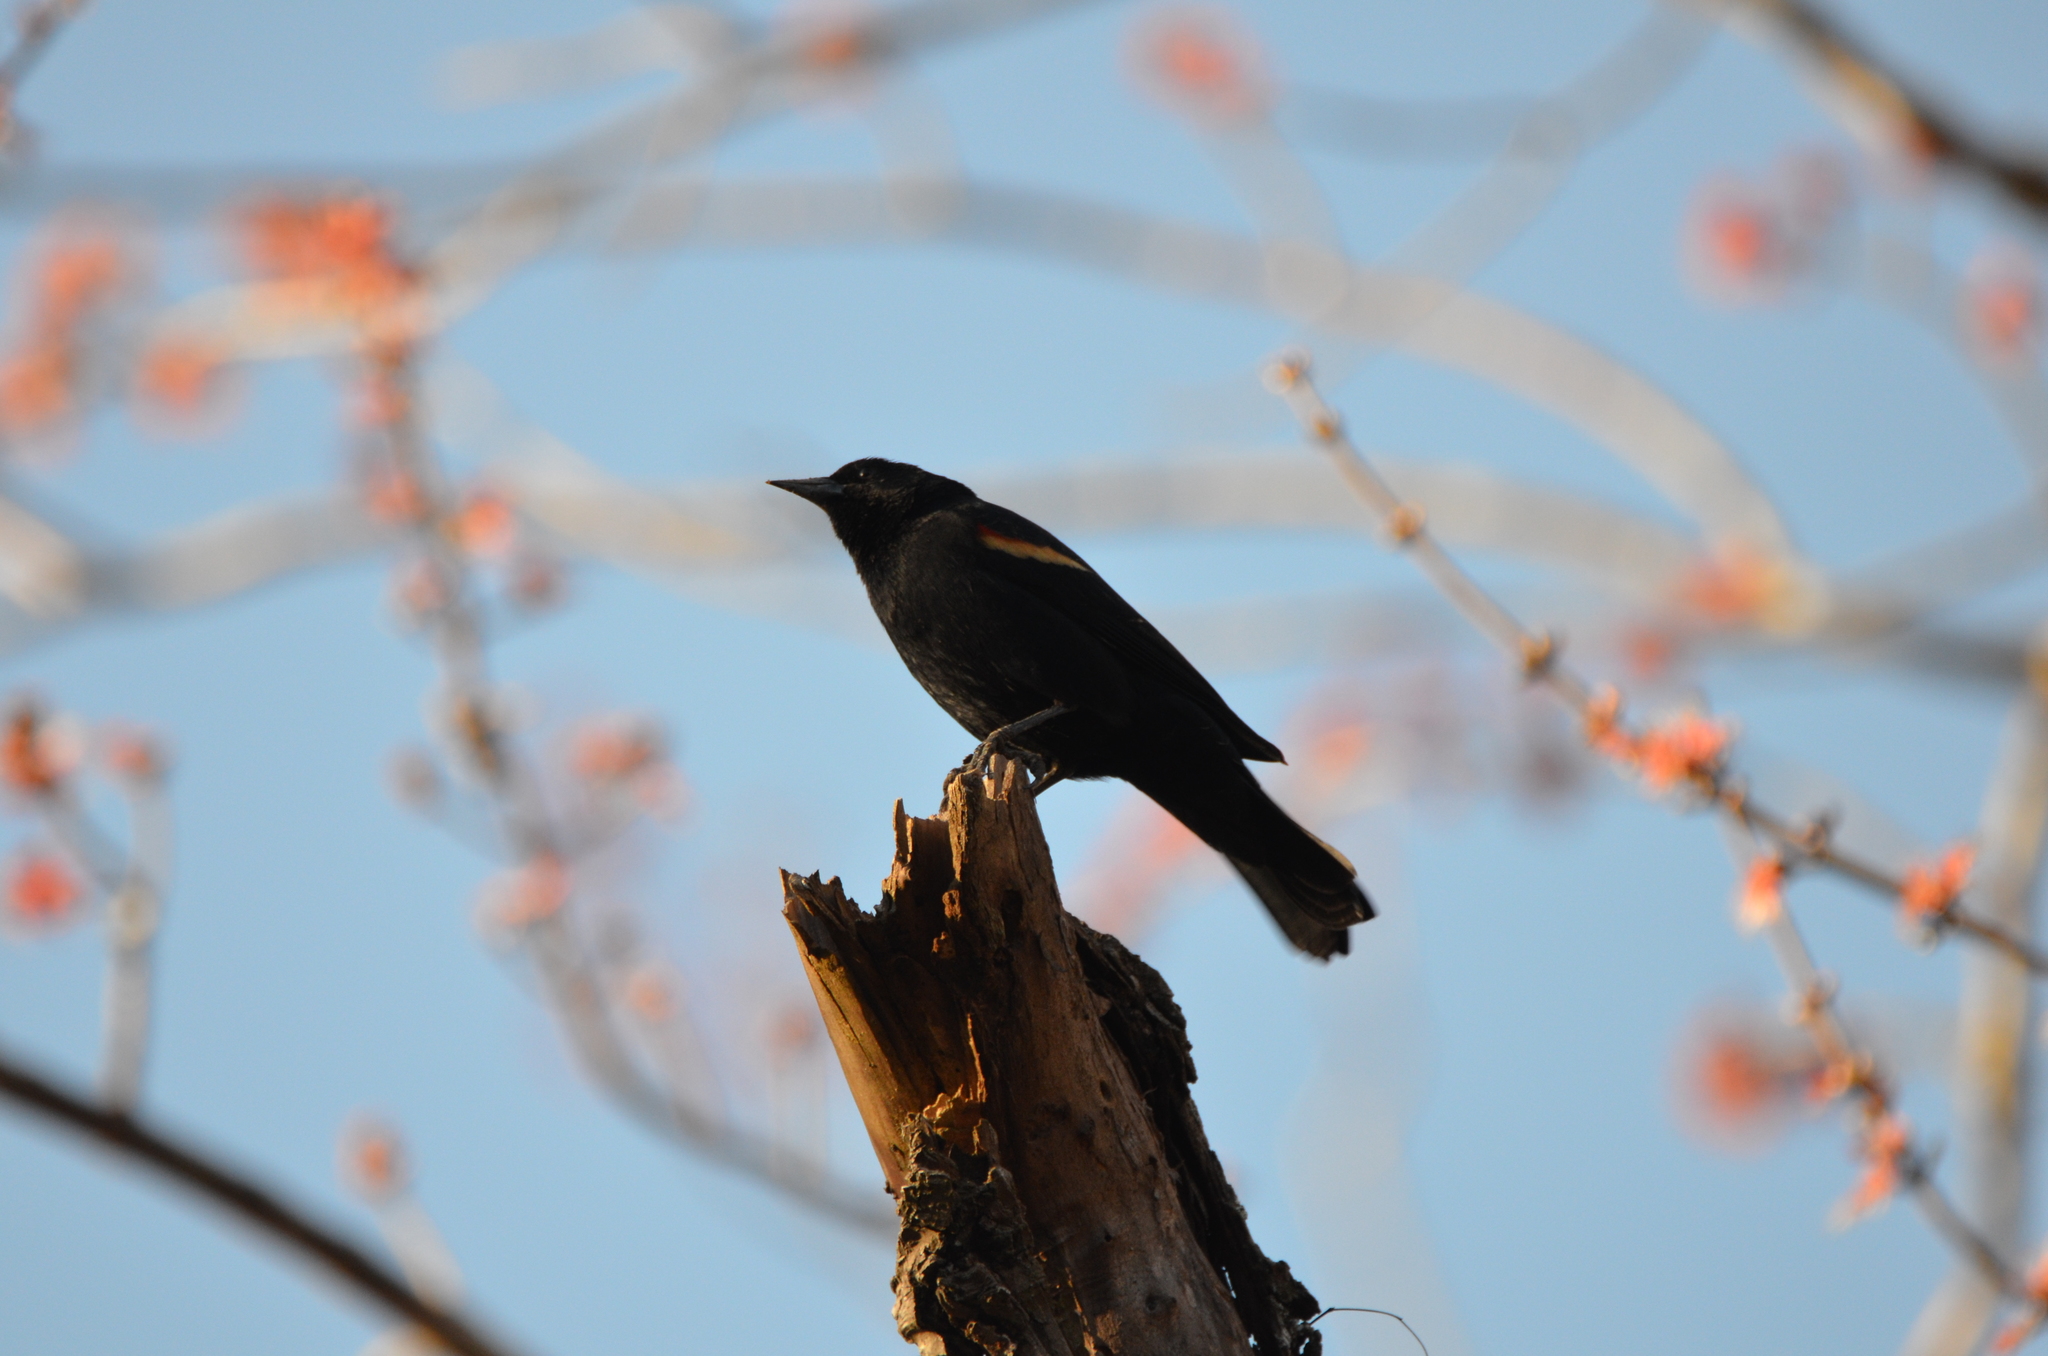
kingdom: Animalia
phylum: Chordata
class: Aves
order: Passeriformes
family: Icteridae
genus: Agelaius
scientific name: Agelaius phoeniceus
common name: Red-winged blackbird
